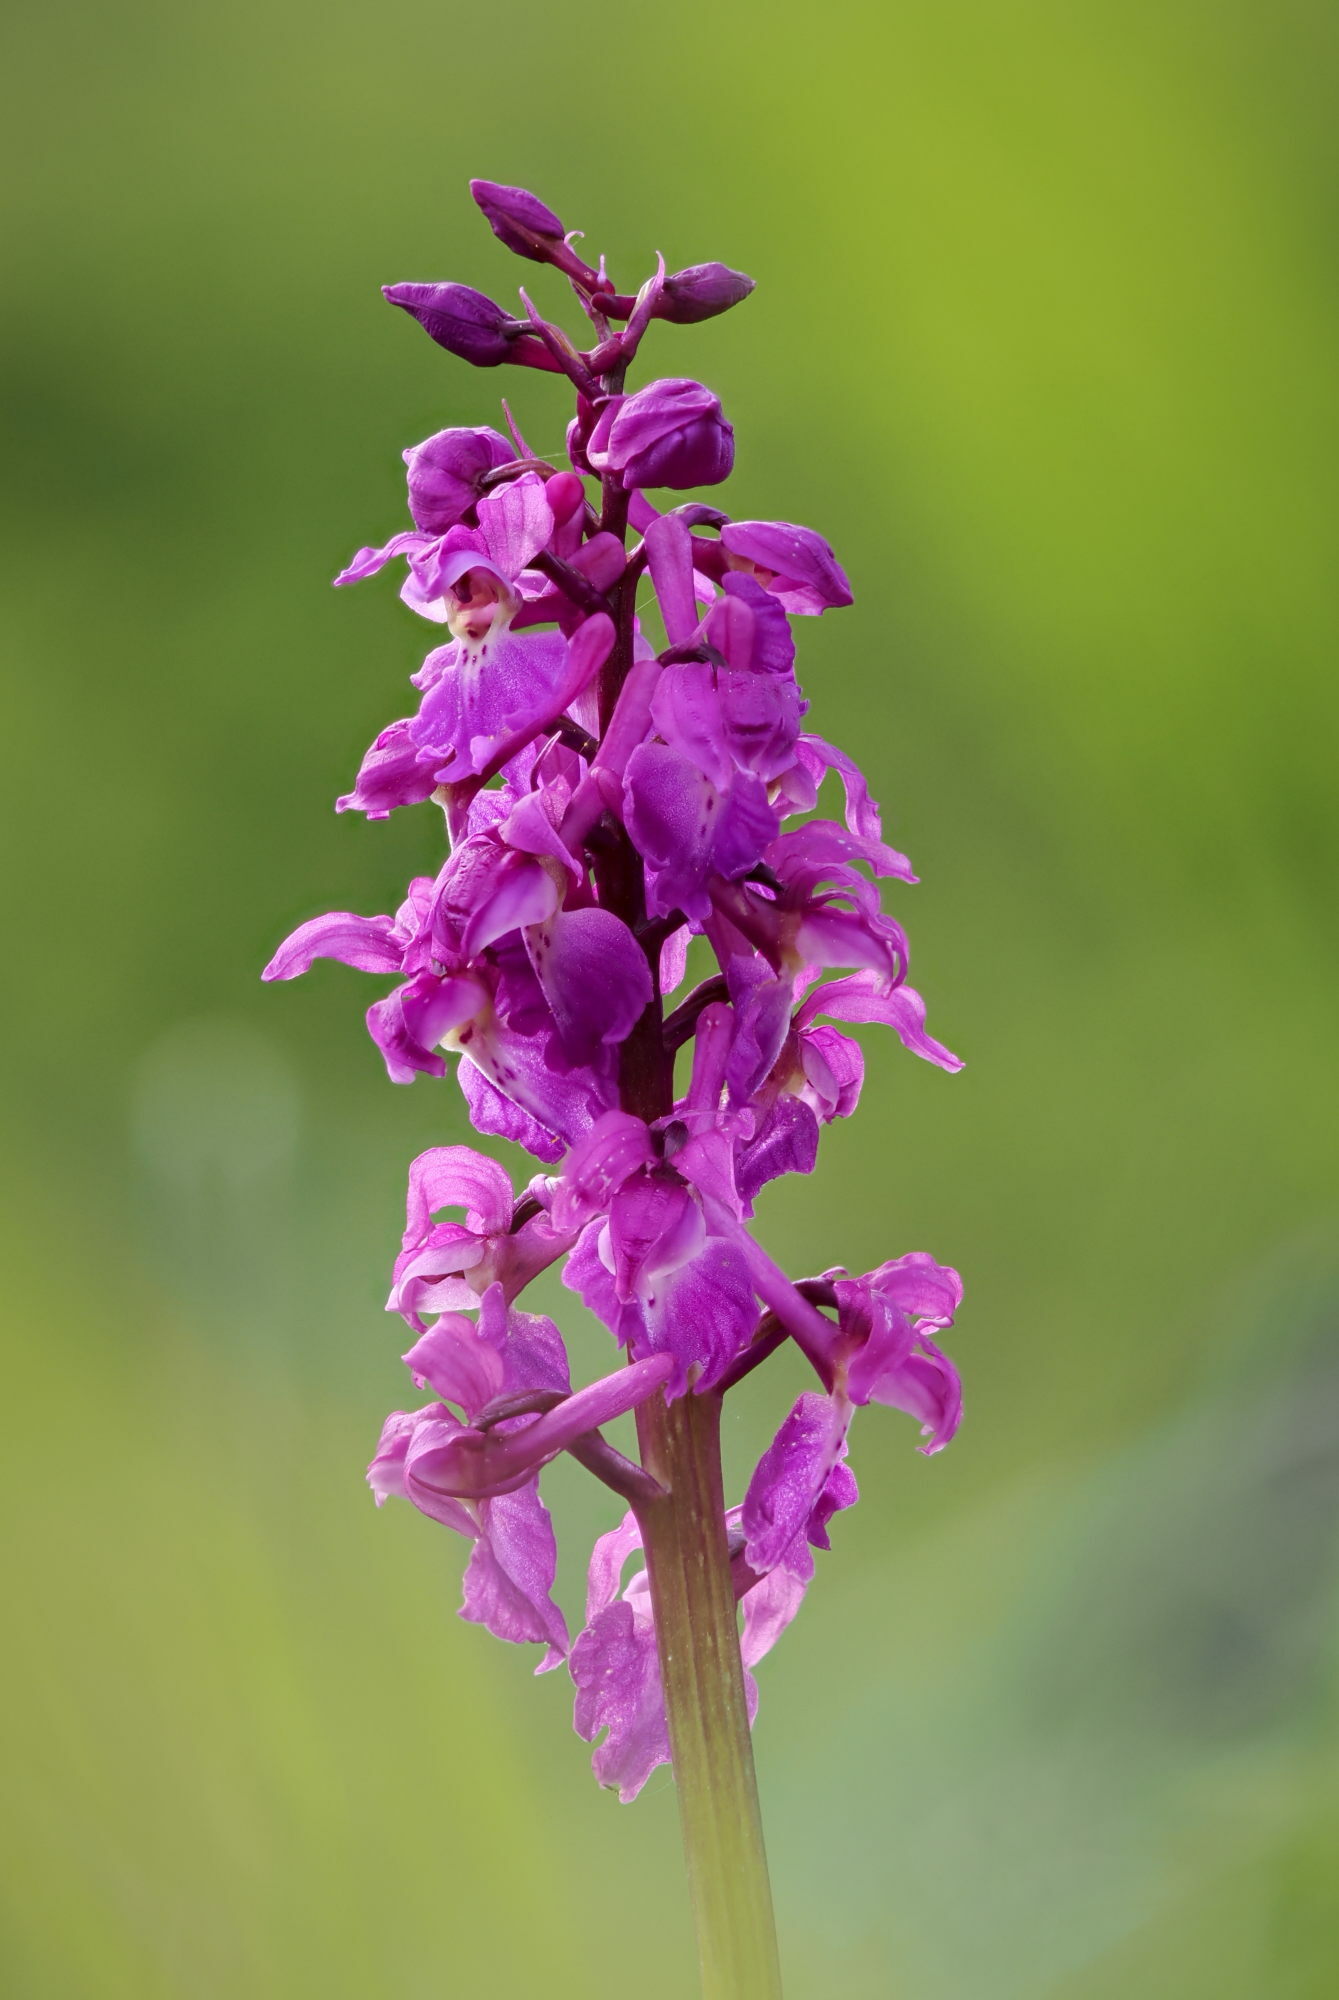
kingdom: Plantae
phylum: Tracheophyta
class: Liliopsida
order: Asparagales
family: Orchidaceae
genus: Orchis
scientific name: Orchis mascula
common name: Early-purple orchid
